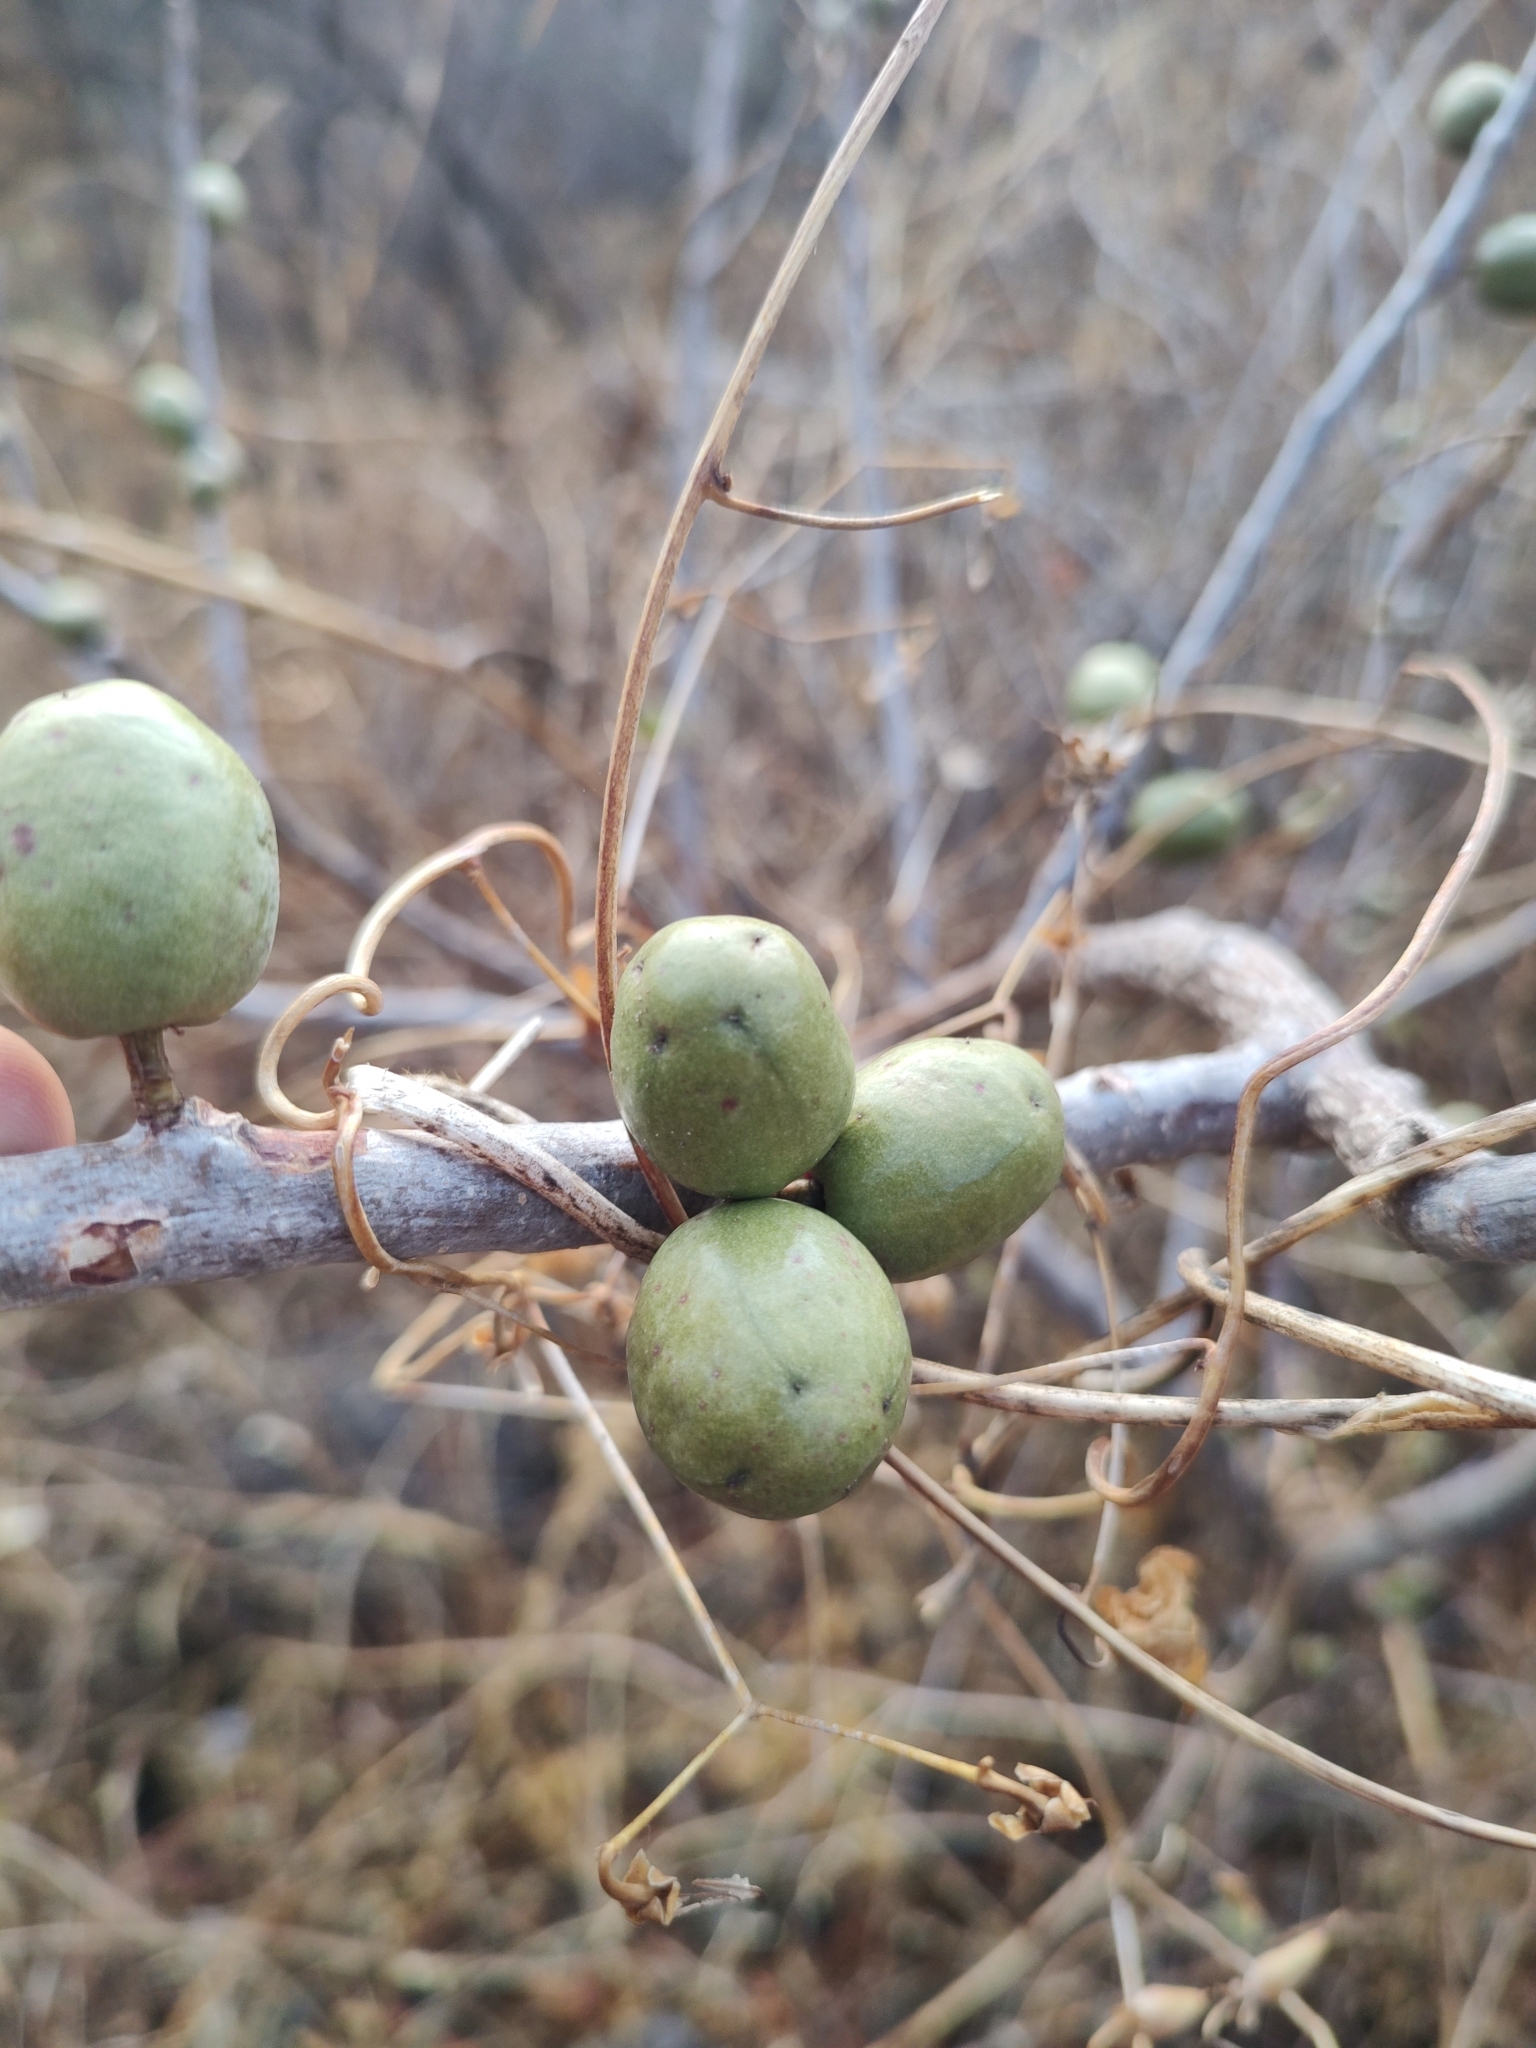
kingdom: Plantae
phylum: Tracheophyta
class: Magnoliopsida
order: Sapindales
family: Anacardiaceae
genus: Spondias
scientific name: Spondias purpurea
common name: Purple mombin
